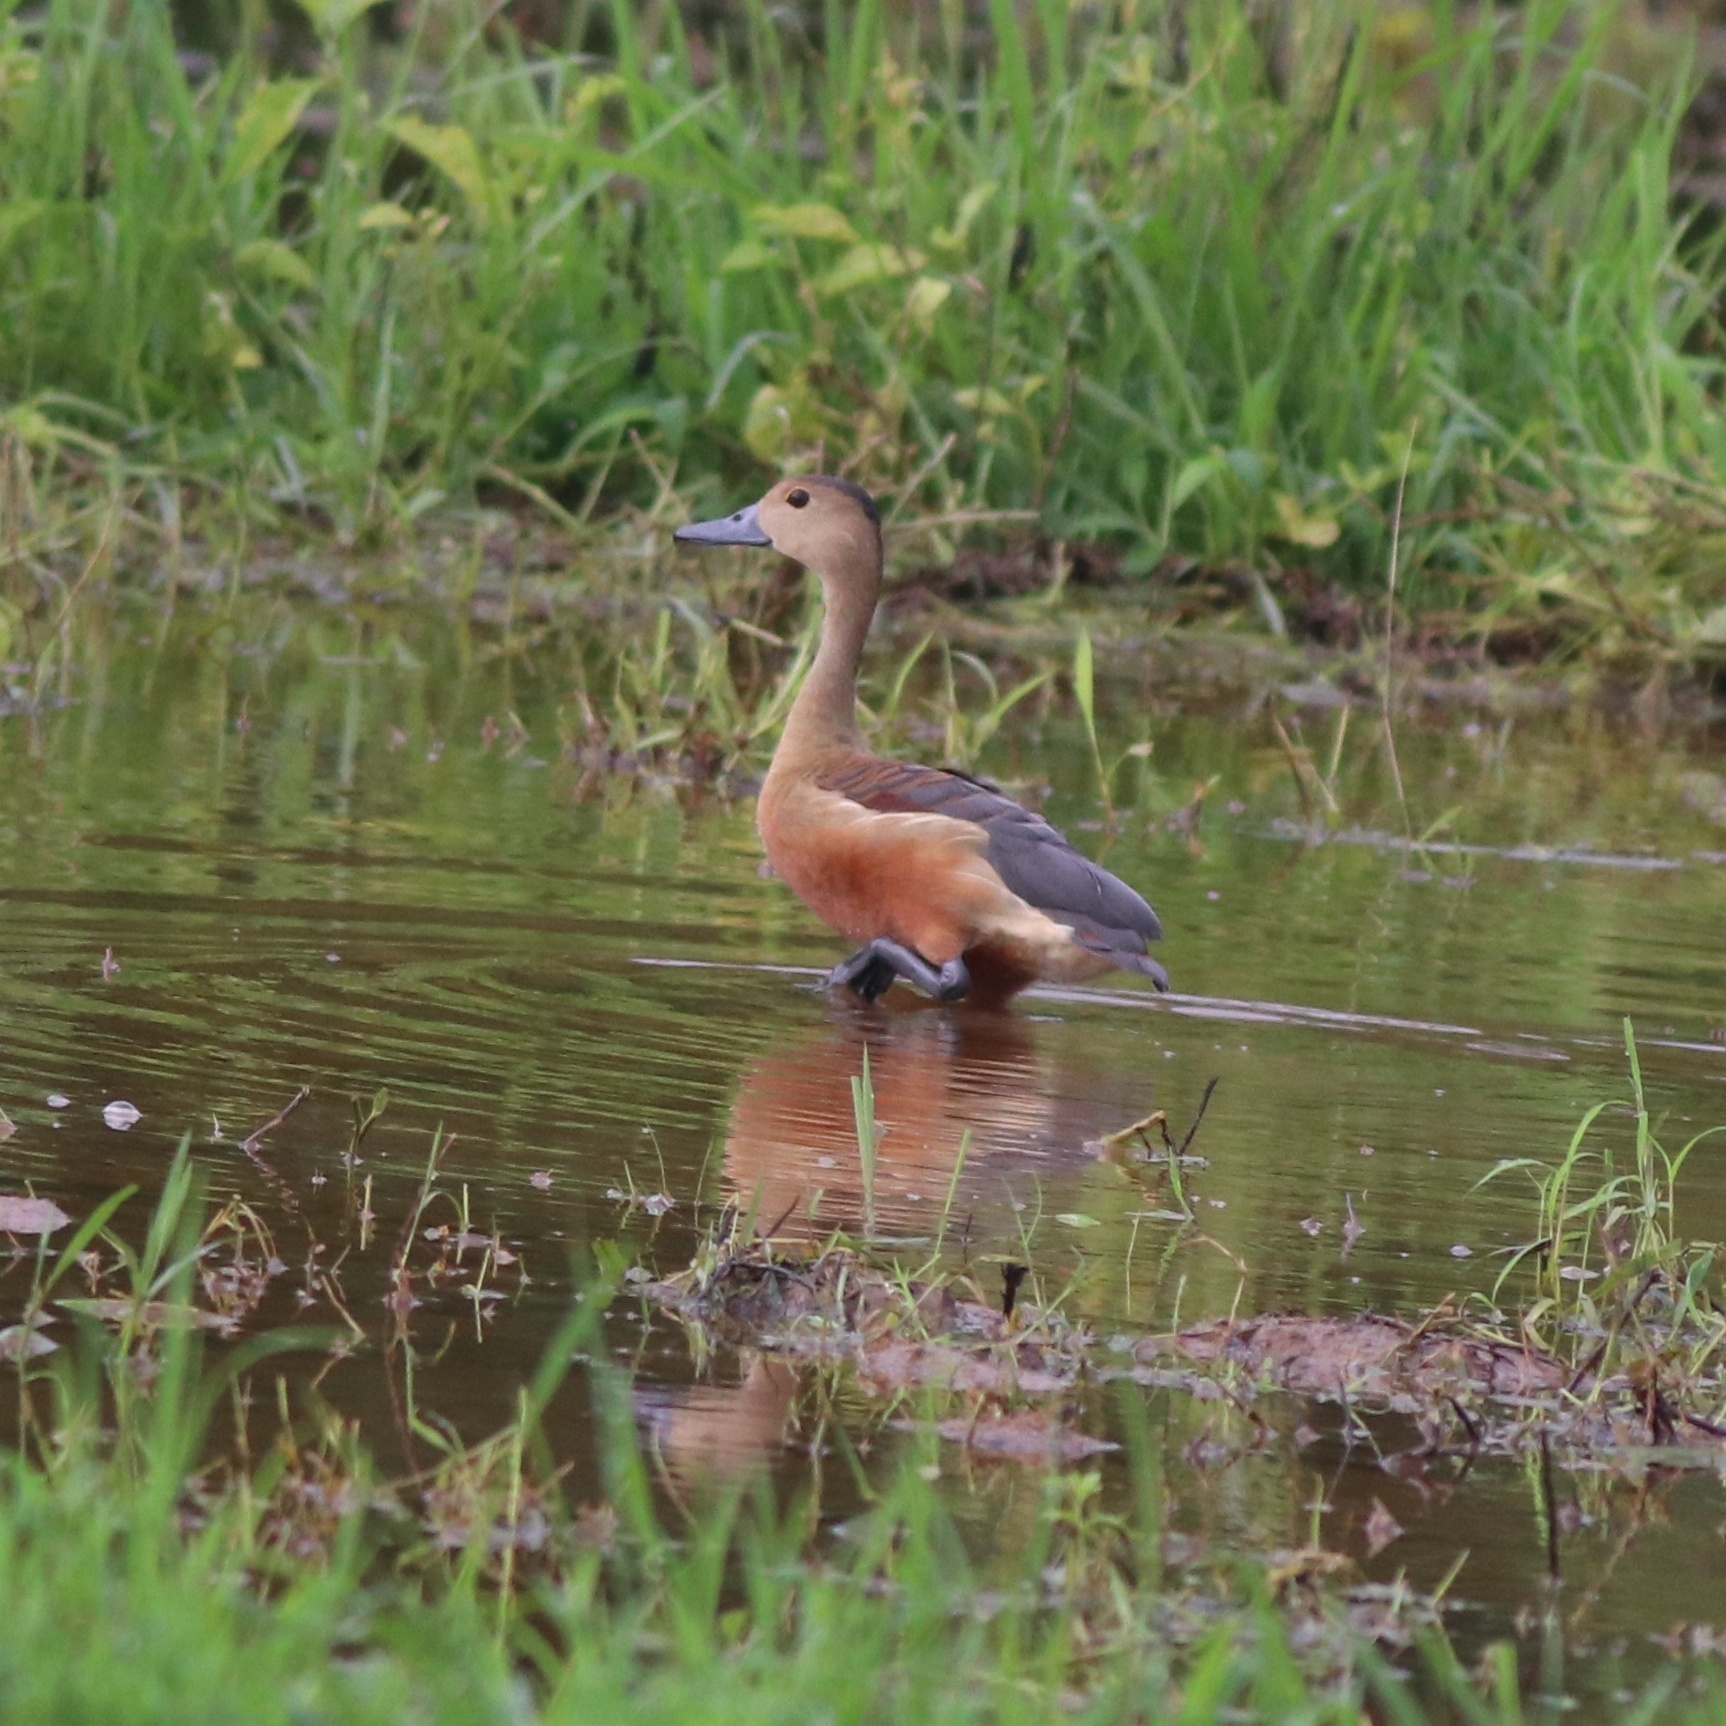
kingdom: Animalia
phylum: Chordata
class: Aves
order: Anseriformes
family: Anatidae
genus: Dendrocygna
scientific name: Dendrocygna javanica
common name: Lesser whistling-duck
